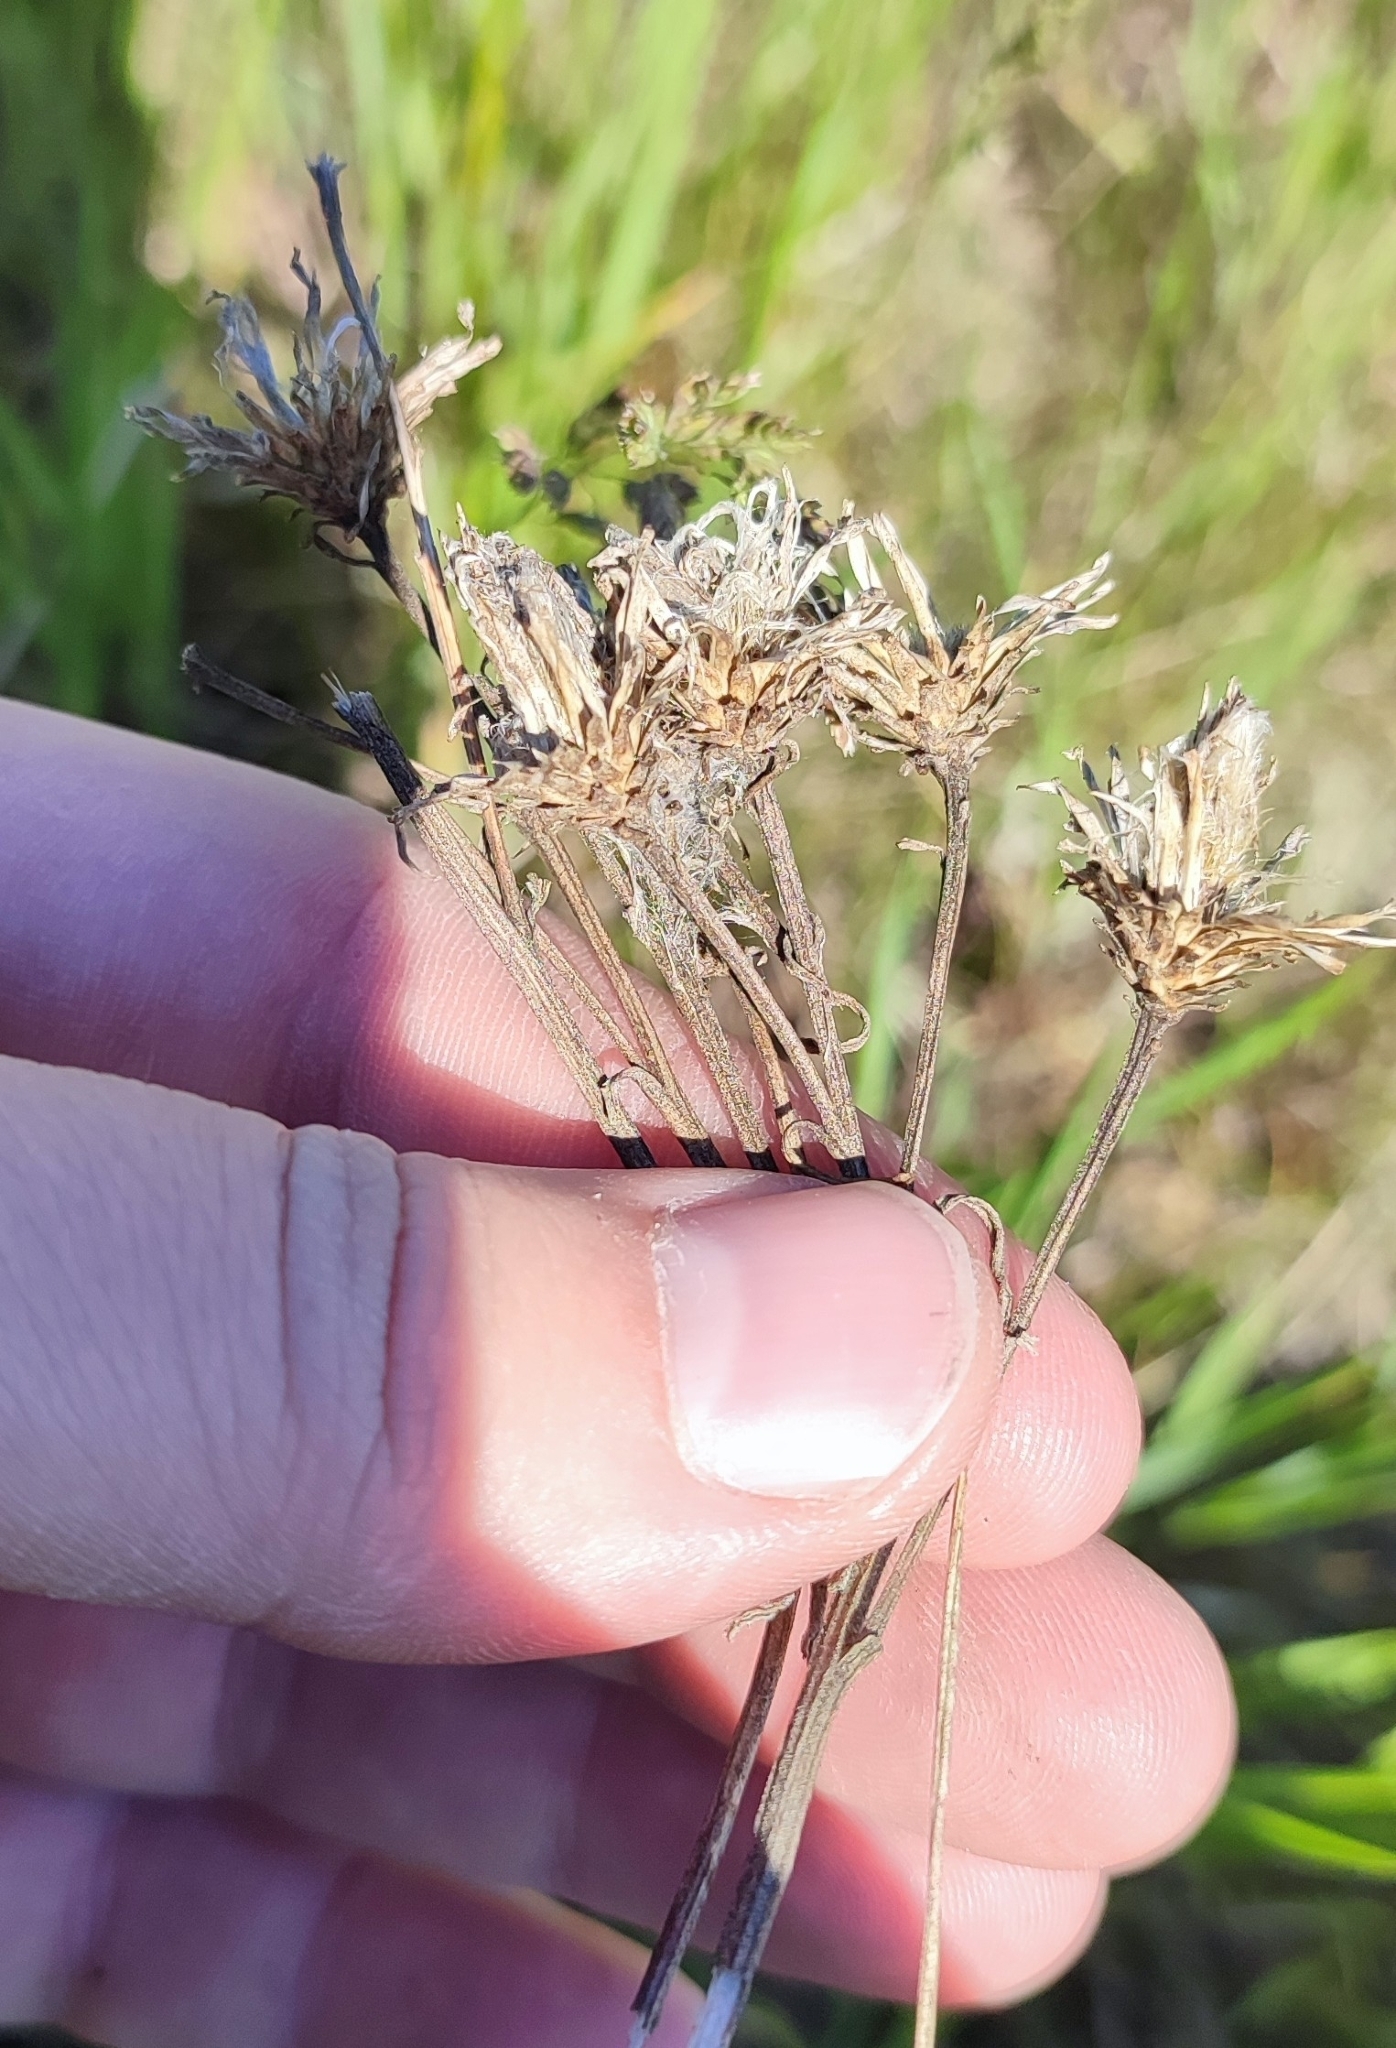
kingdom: Plantae
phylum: Tracheophyta
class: Magnoliopsida
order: Asterales
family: Asteraceae
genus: Saussurea
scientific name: Saussurea amara
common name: Alberta sawwort
